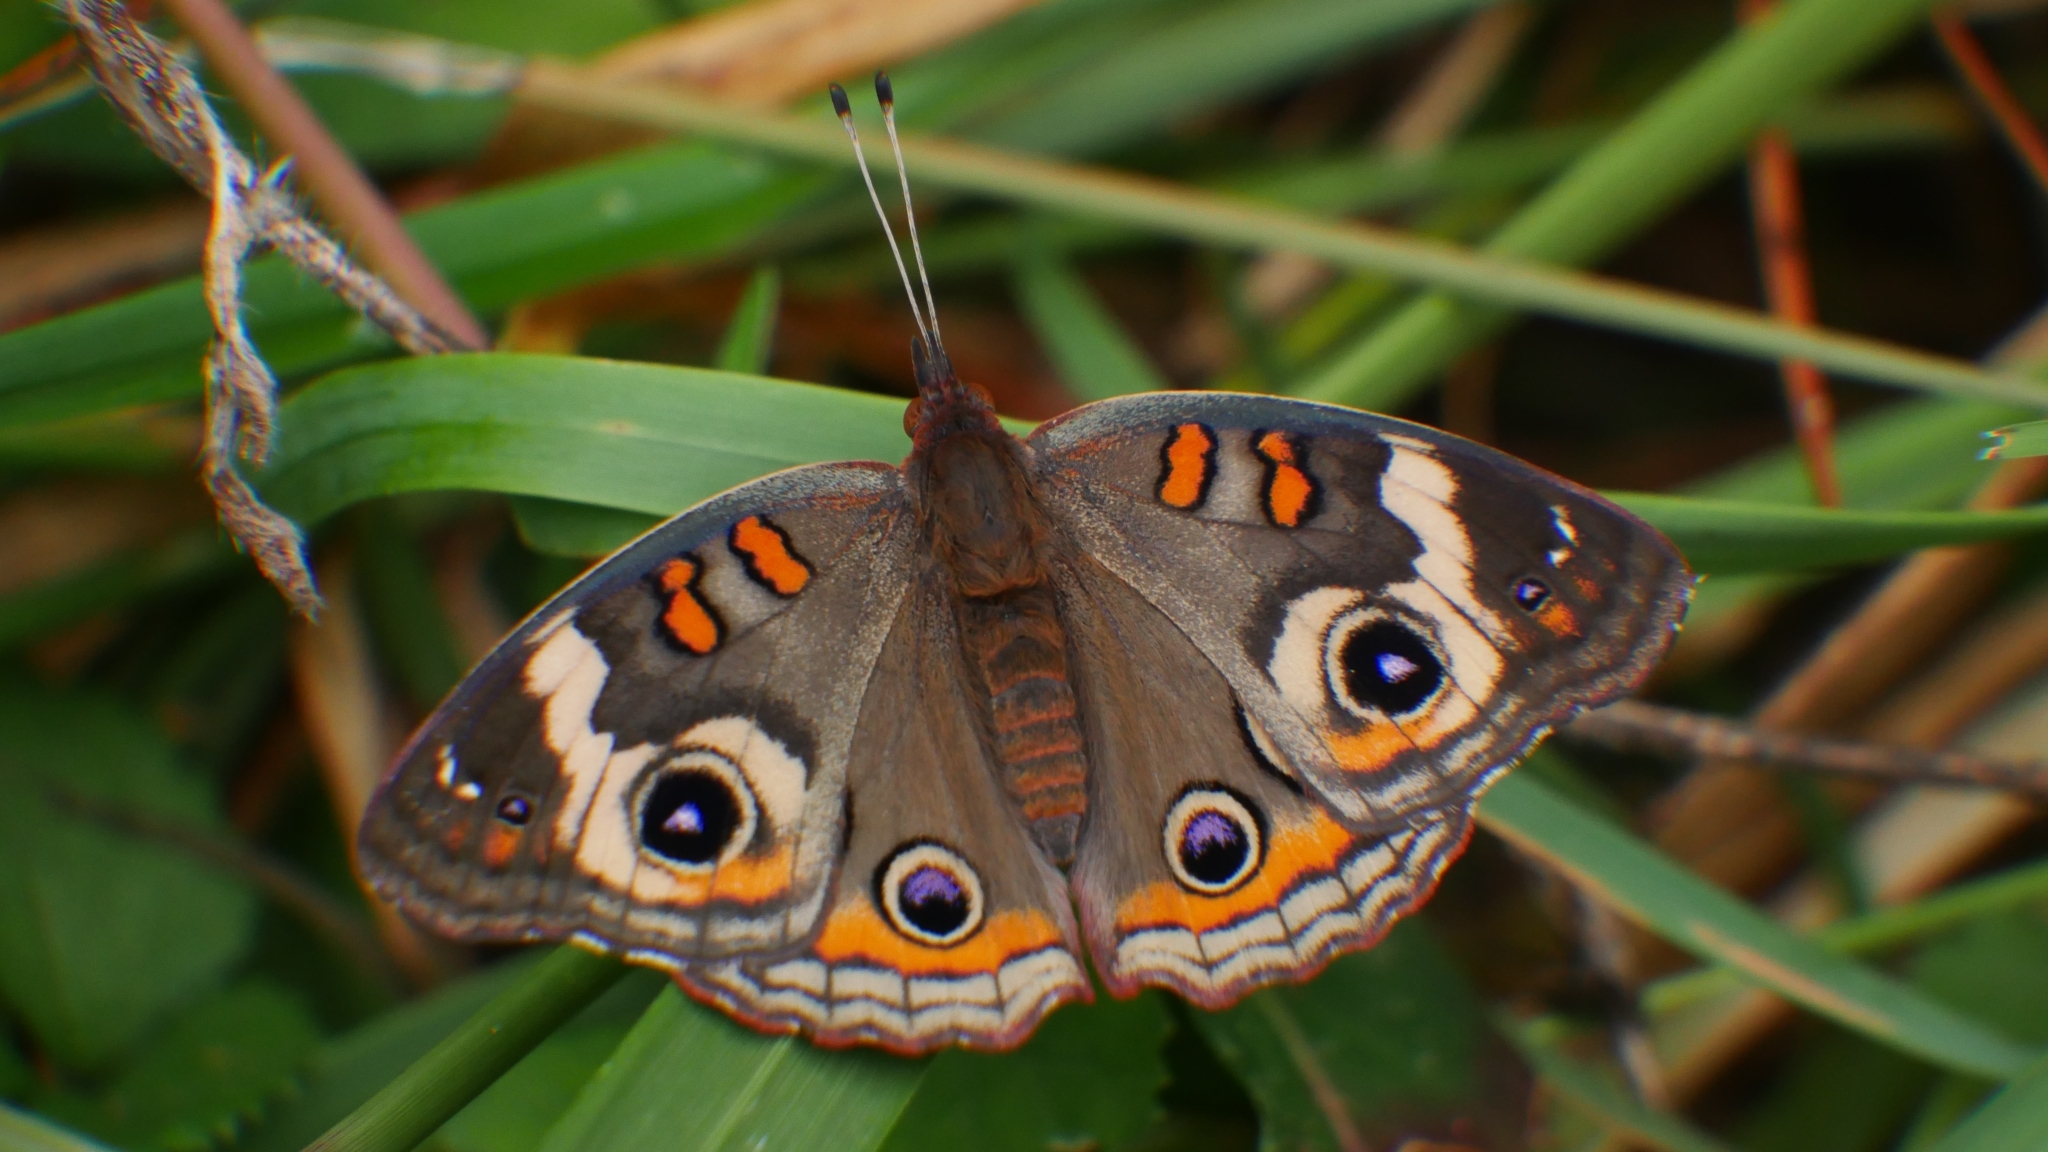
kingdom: Animalia
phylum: Arthropoda
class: Insecta
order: Lepidoptera
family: Nymphalidae
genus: Junonia
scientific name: Junonia coenia
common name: Common buckeye
